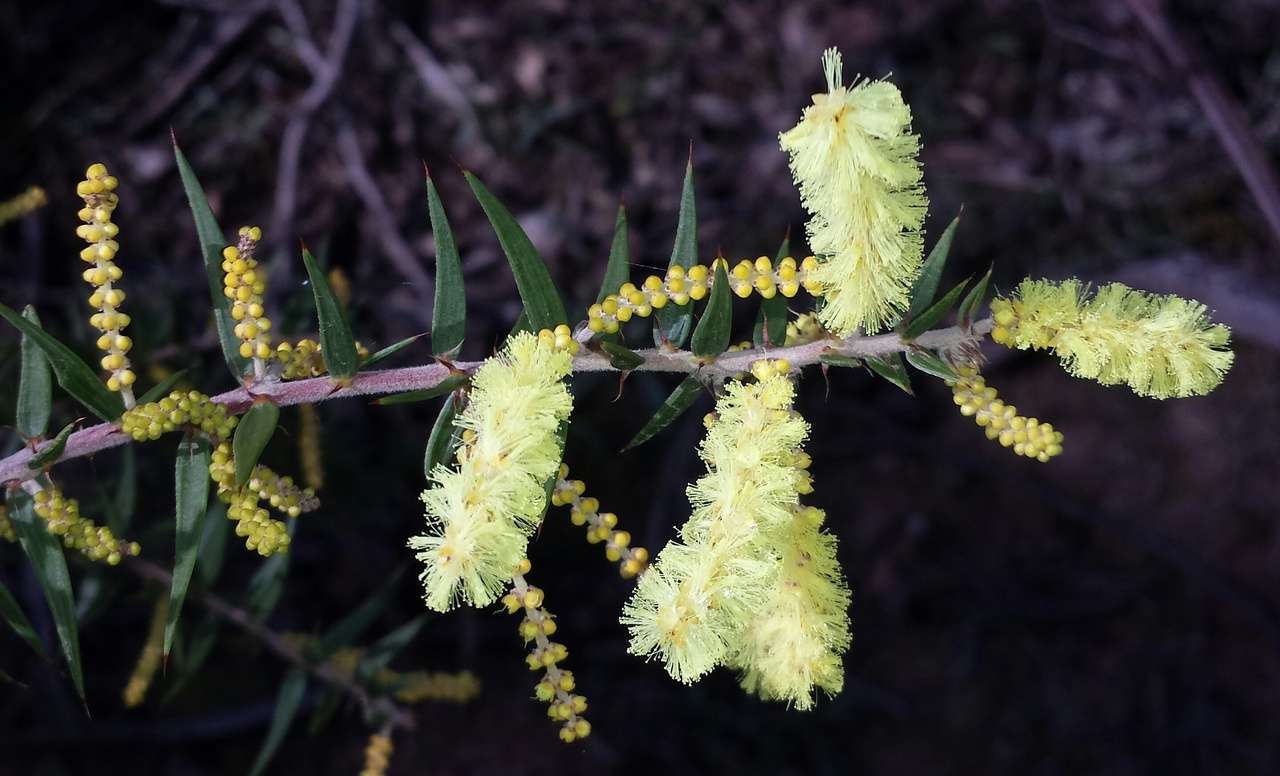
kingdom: Plantae
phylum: Tracheophyta
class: Magnoliopsida
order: Fabales
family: Fabaceae
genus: Acacia
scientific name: Acacia oxycedrus
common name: Spike wattle
